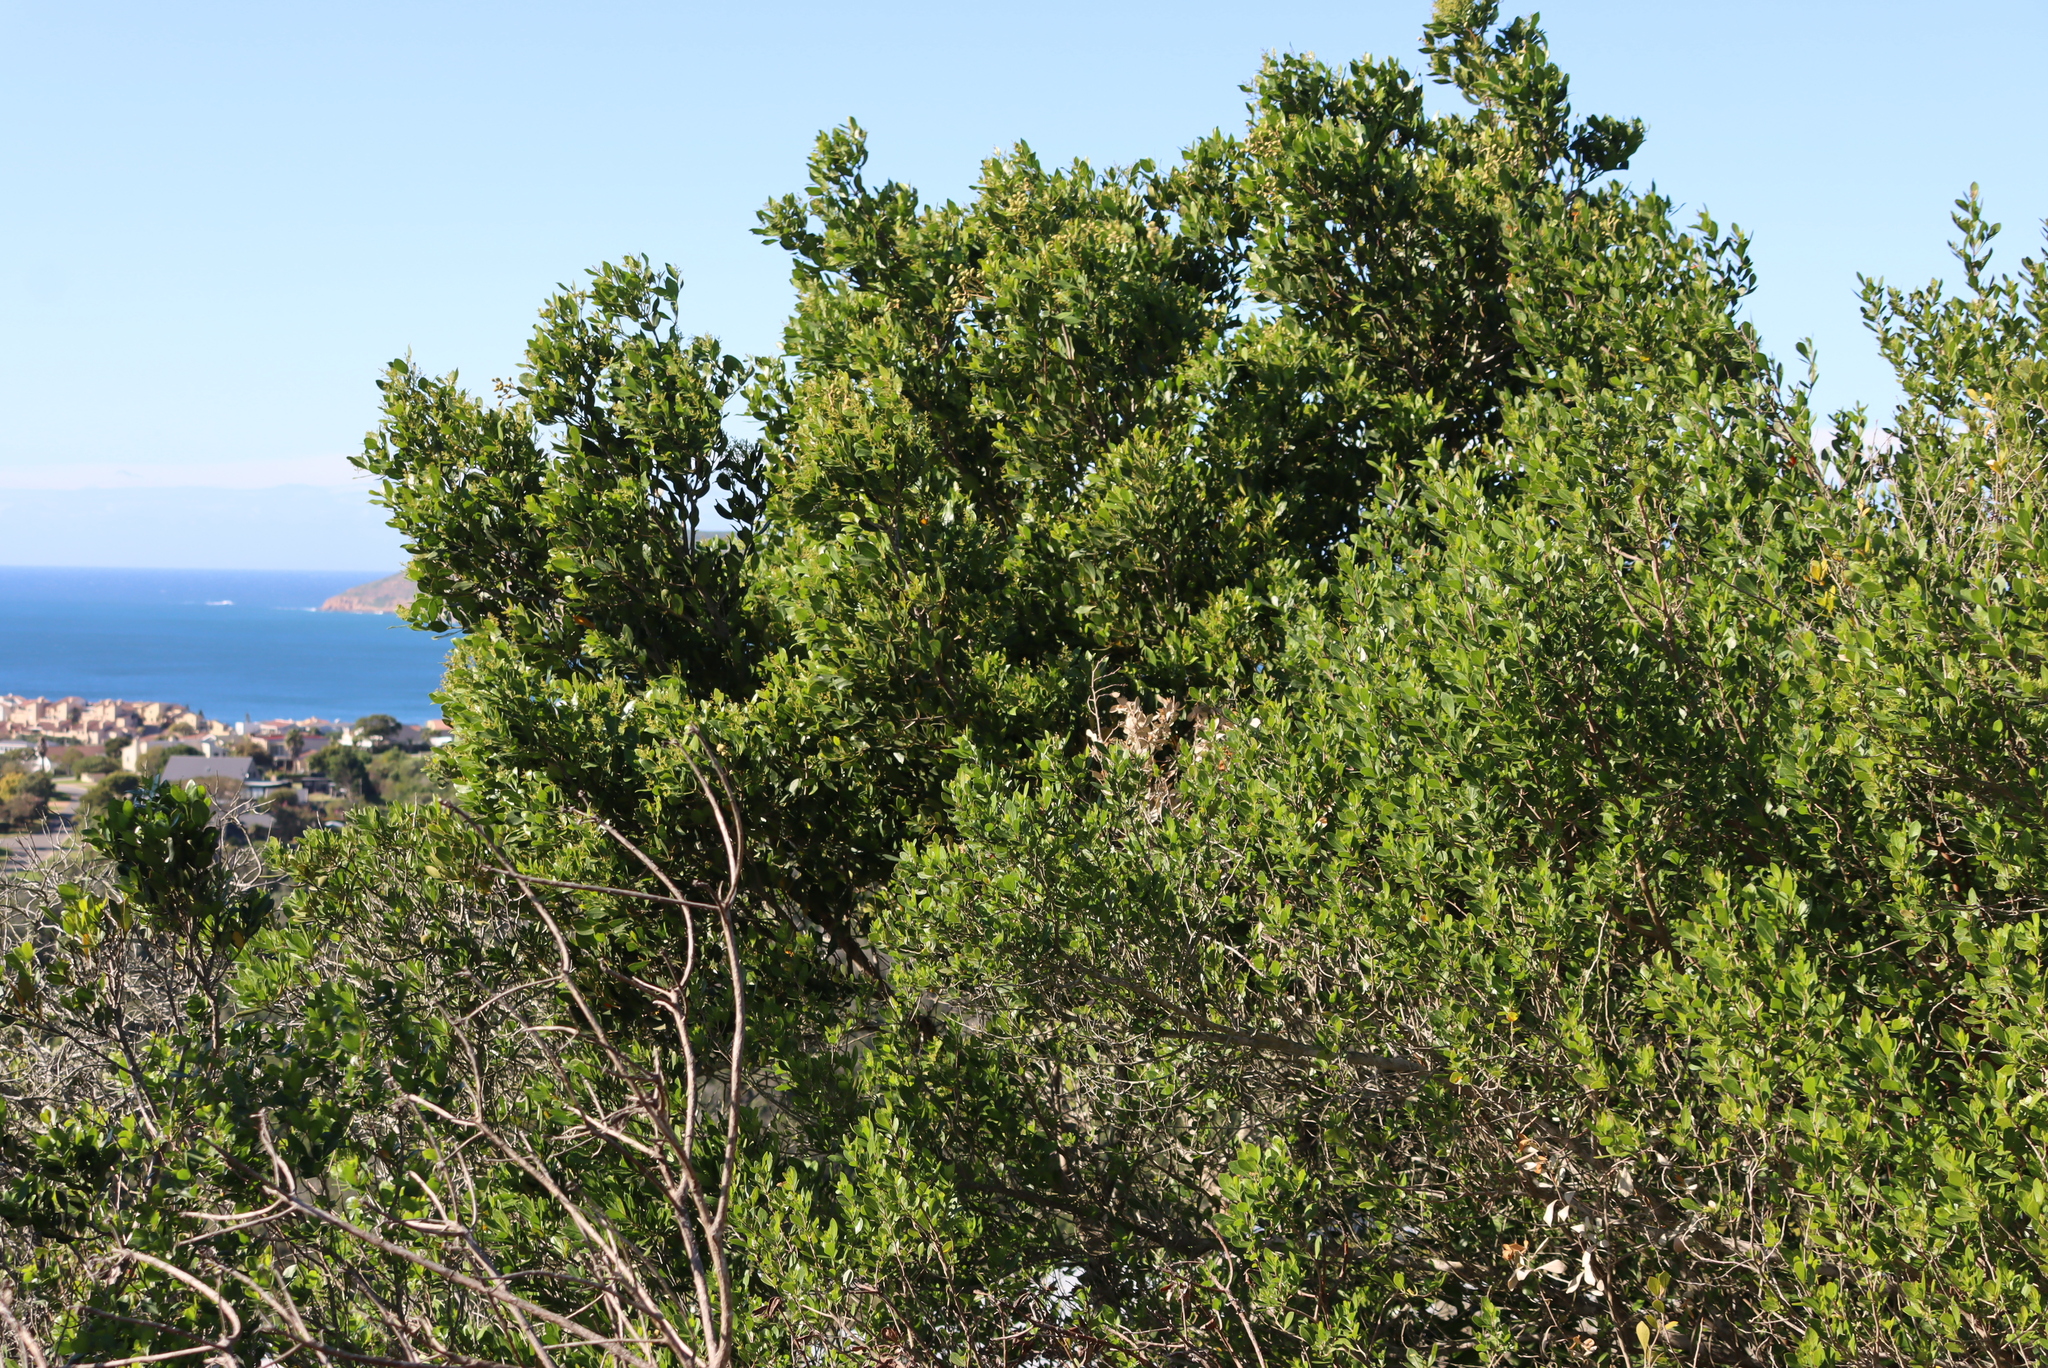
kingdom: Plantae
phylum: Tracheophyta
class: Magnoliopsida
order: Lamiales
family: Oleaceae
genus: Olea
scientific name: Olea capensis
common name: Black ironwood
